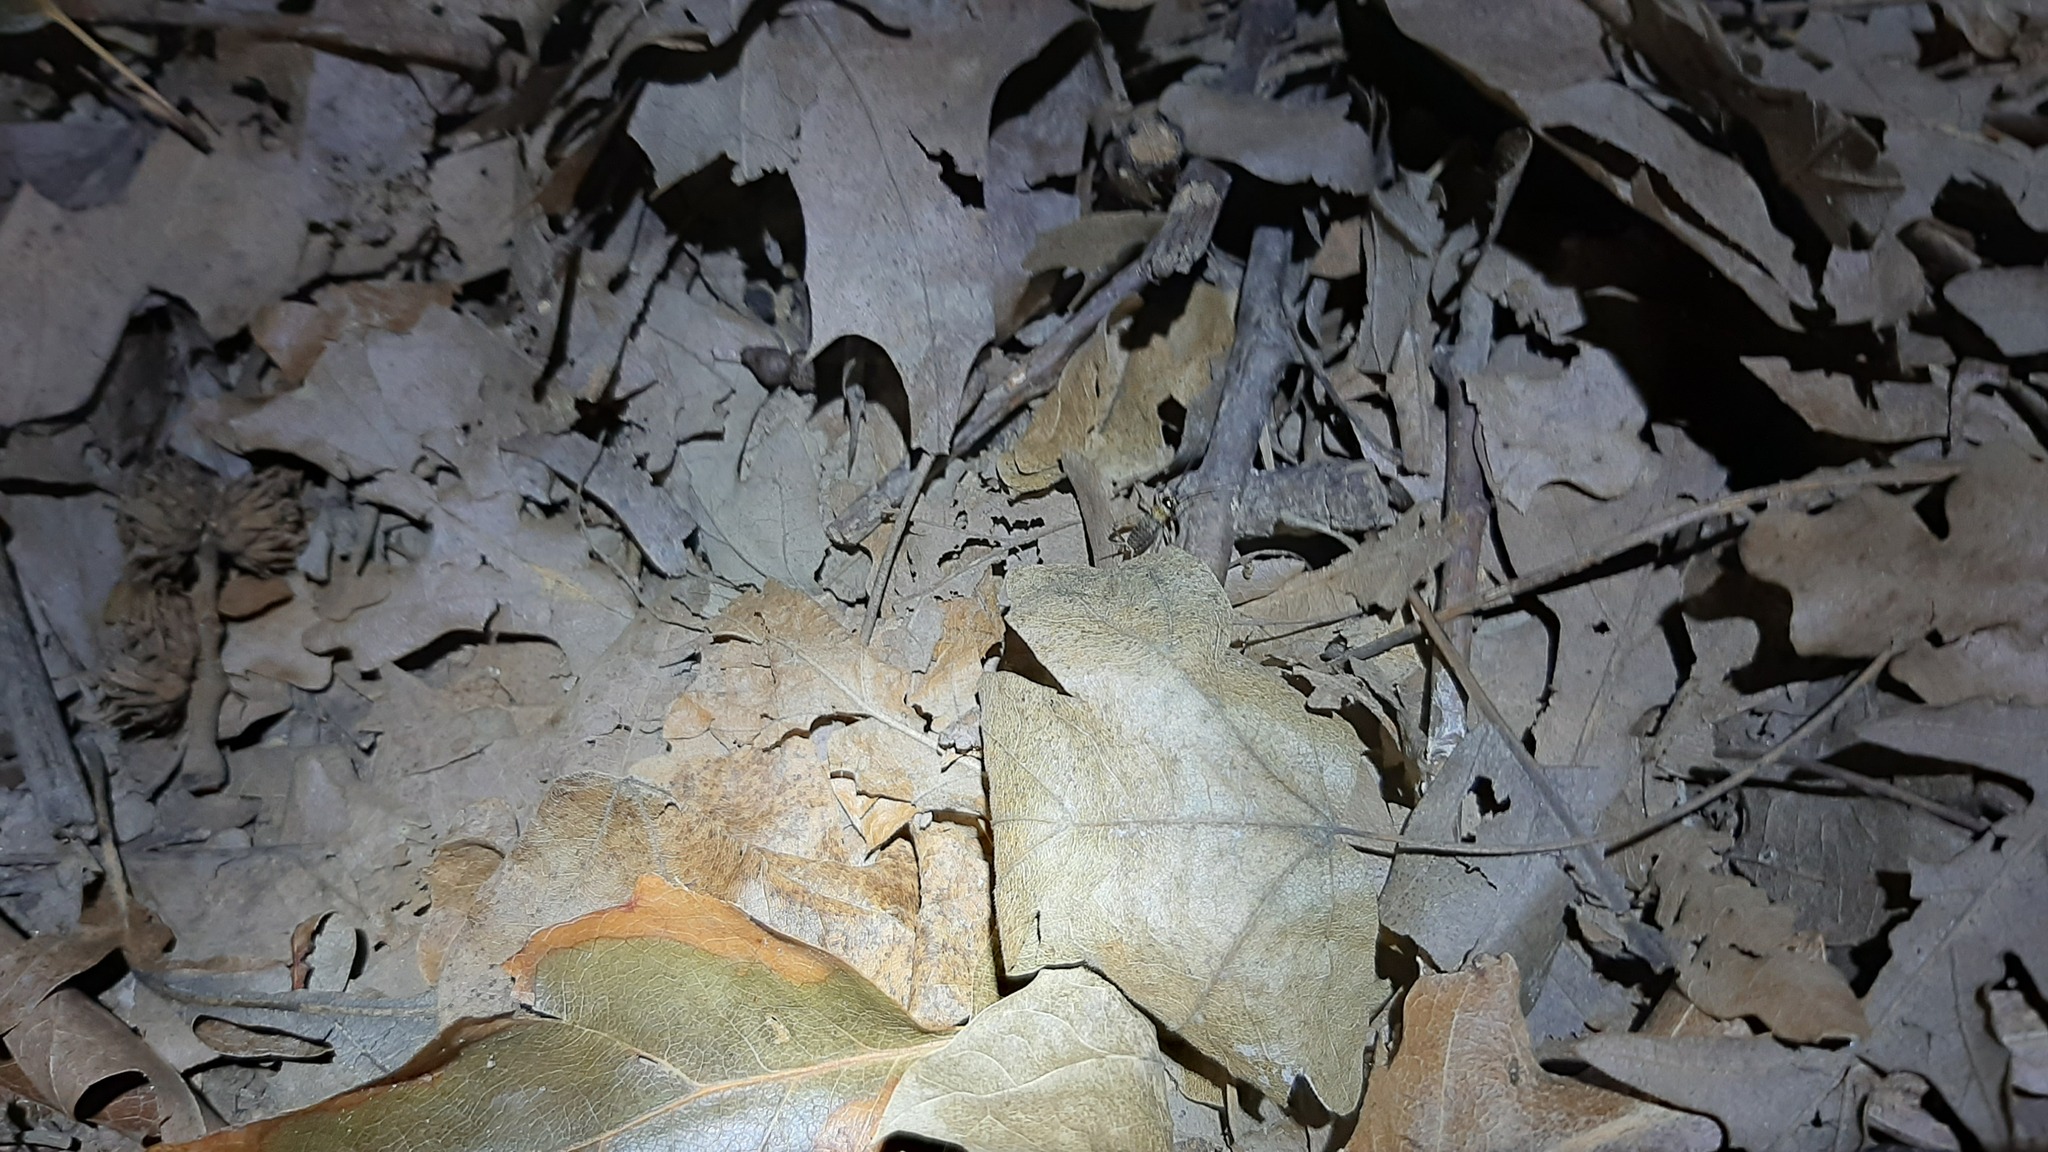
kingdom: Animalia
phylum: Arthropoda
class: Insecta
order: Orthoptera
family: Trigonidiidae
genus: Nemobius
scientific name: Nemobius sylvestris
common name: Wood-cricket
